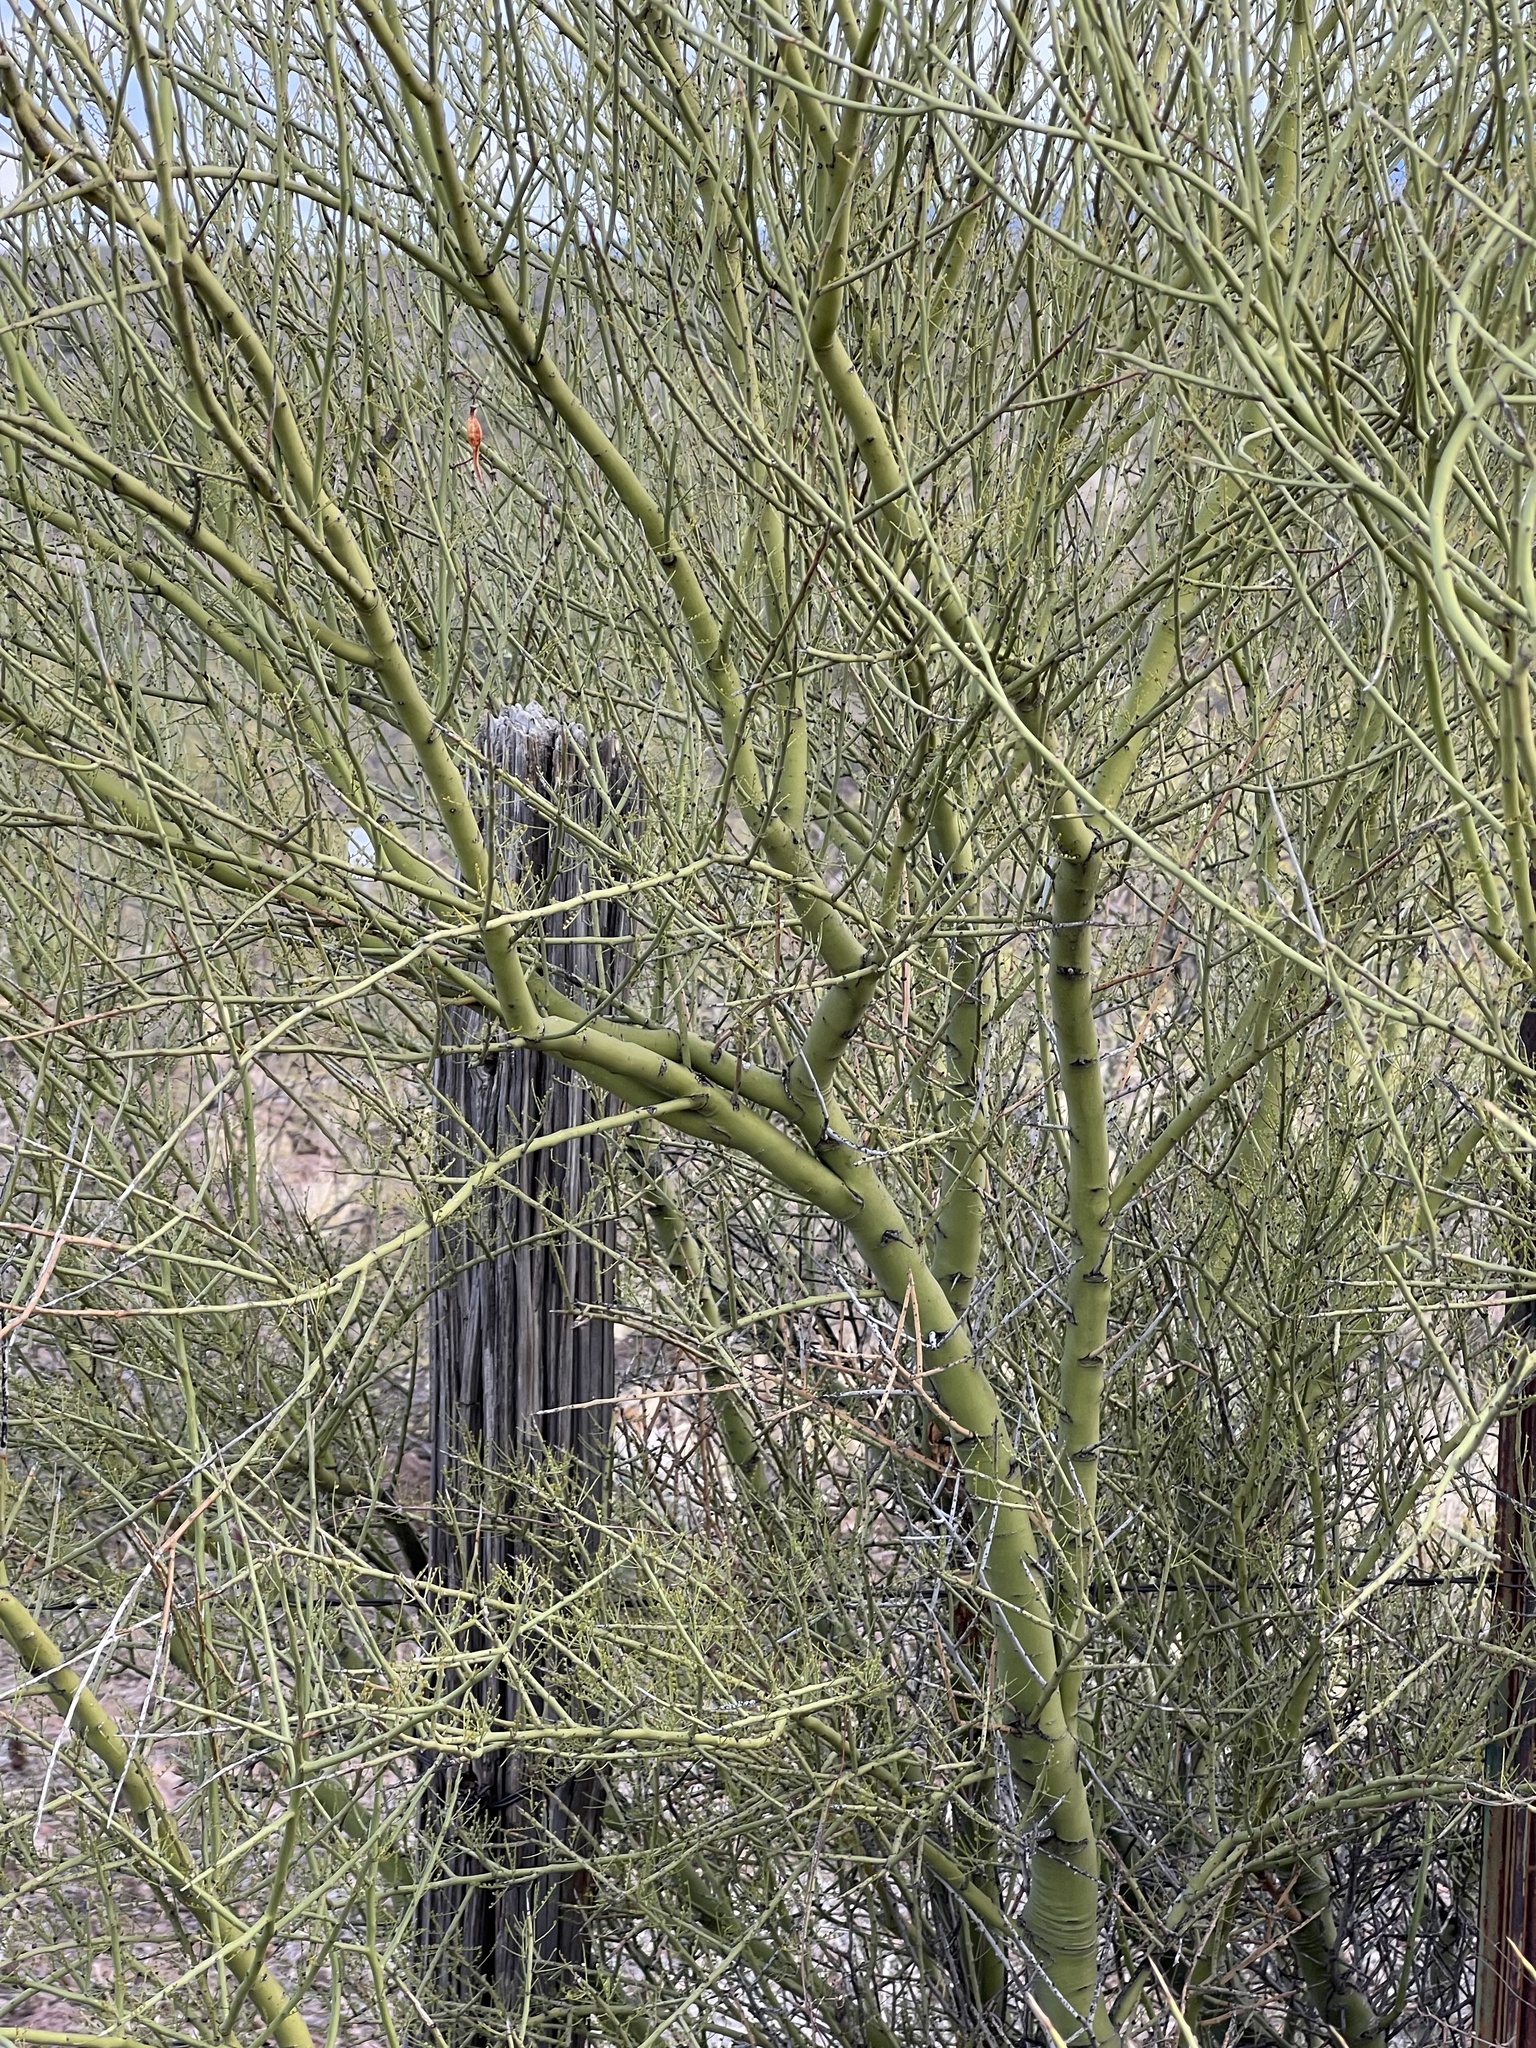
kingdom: Plantae
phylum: Tracheophyta
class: Magnoliopsida
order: Fabales
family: Fabaceae
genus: Parkinsonia
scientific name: Parkinsonia microphylla
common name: Yellow paloverde
